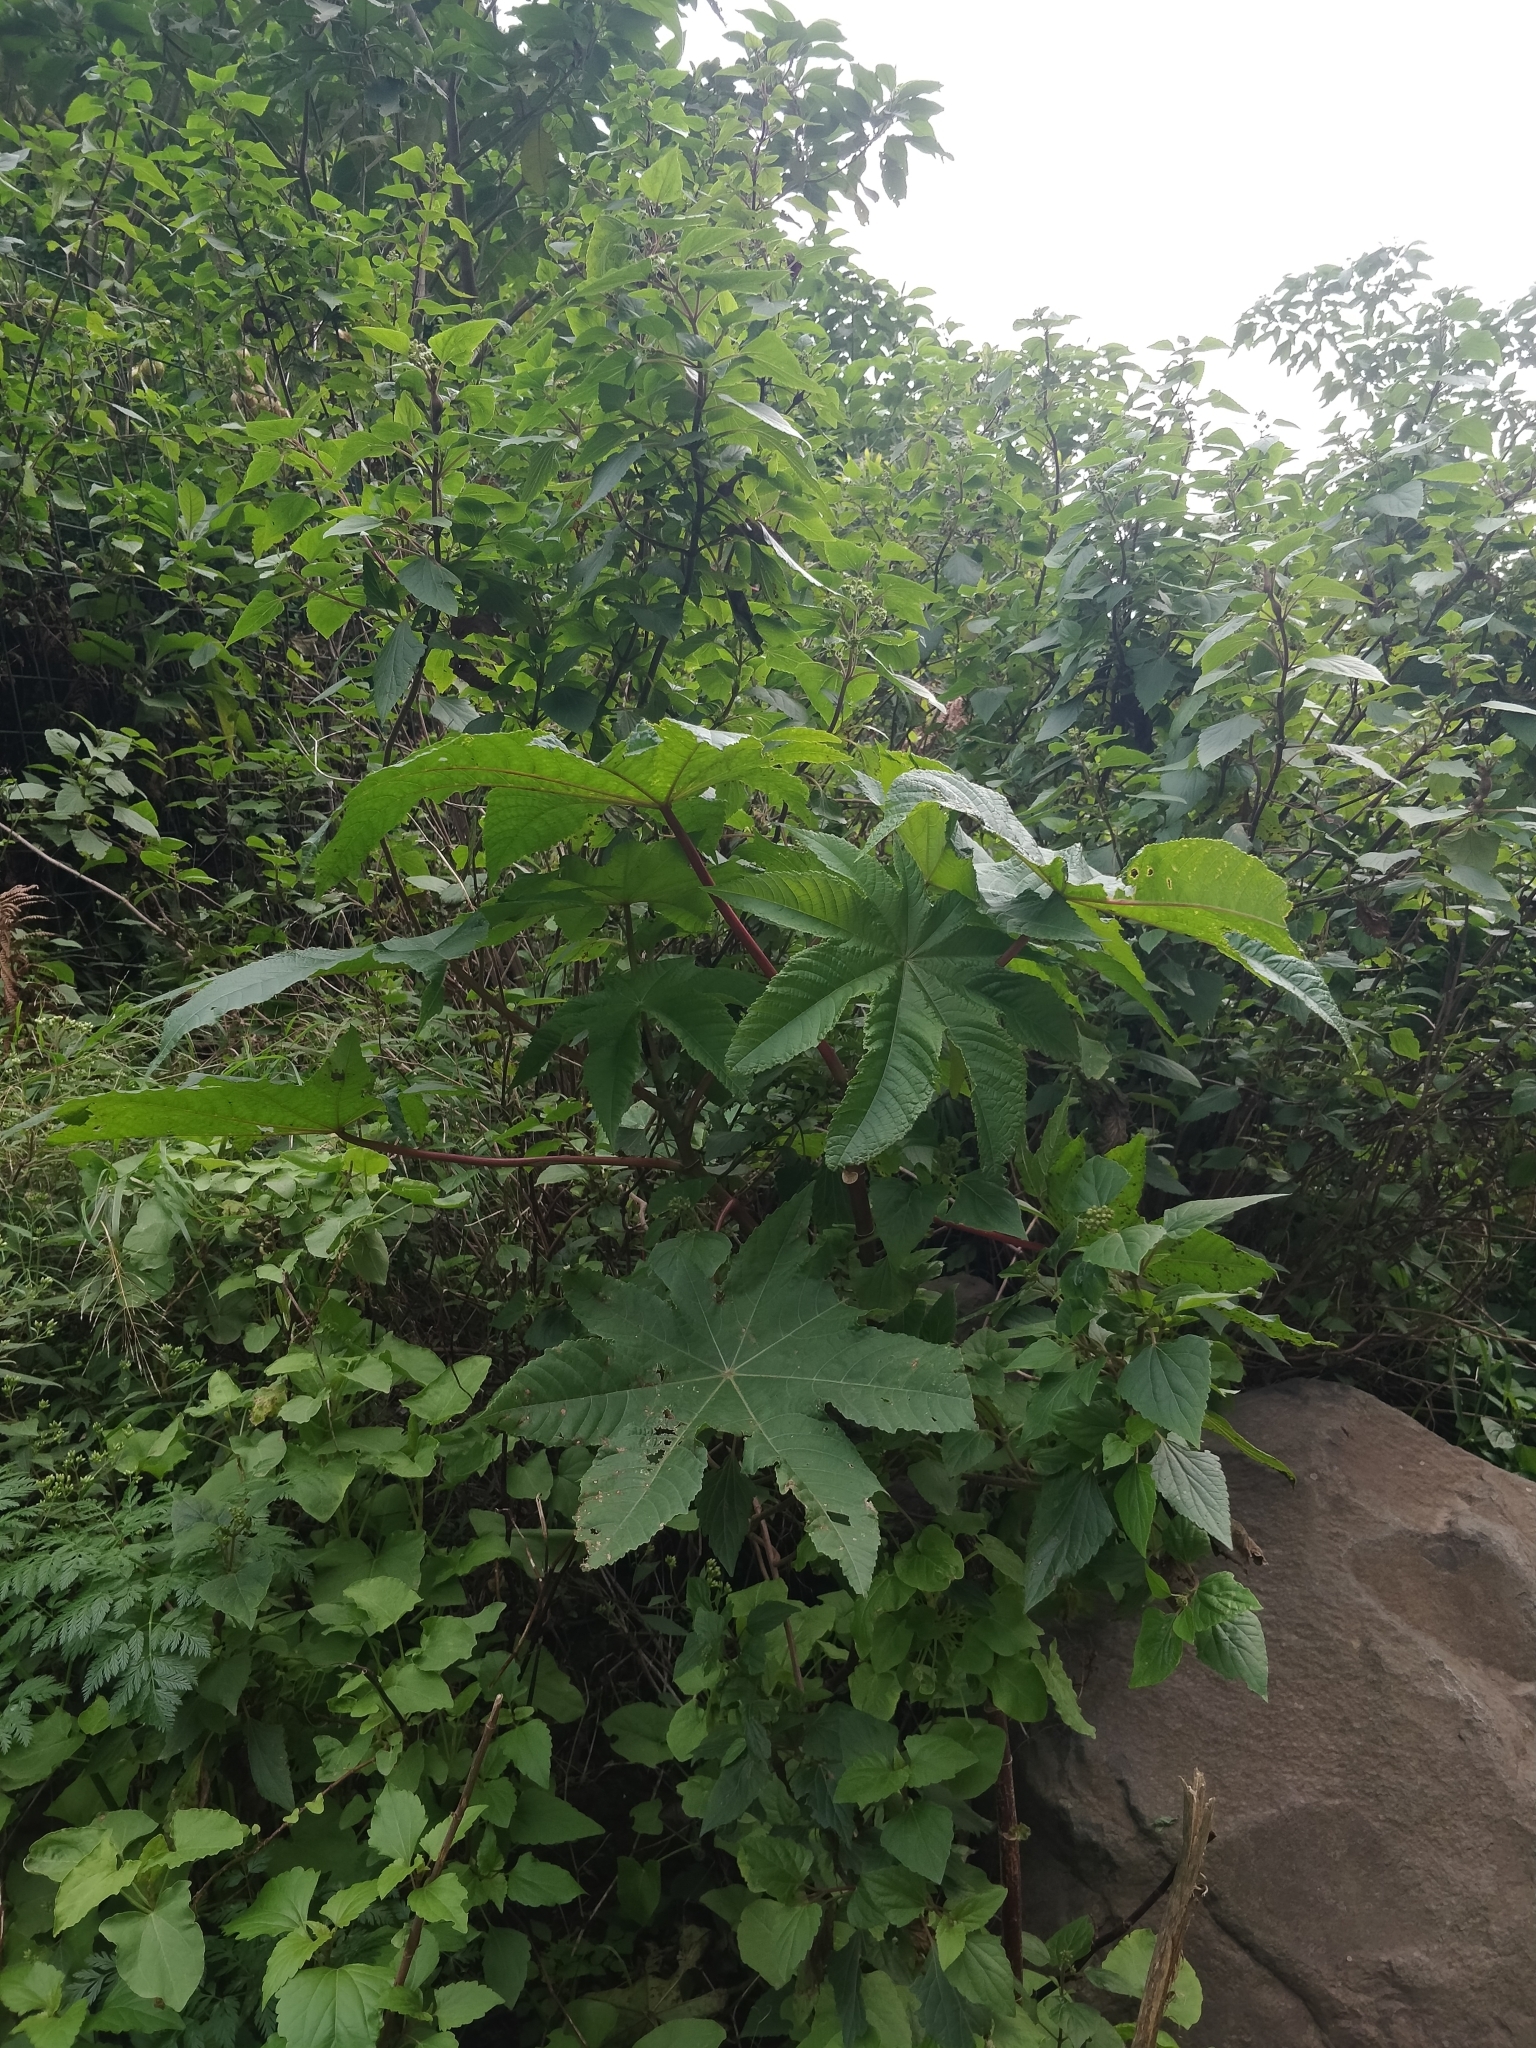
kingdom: Plantae
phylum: Tracheophyta
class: Magnoliopsida
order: Malpighiales
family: Euphorbiaceae
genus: Ricinus
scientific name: Ricinus communis
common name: Castor-oil-plant
